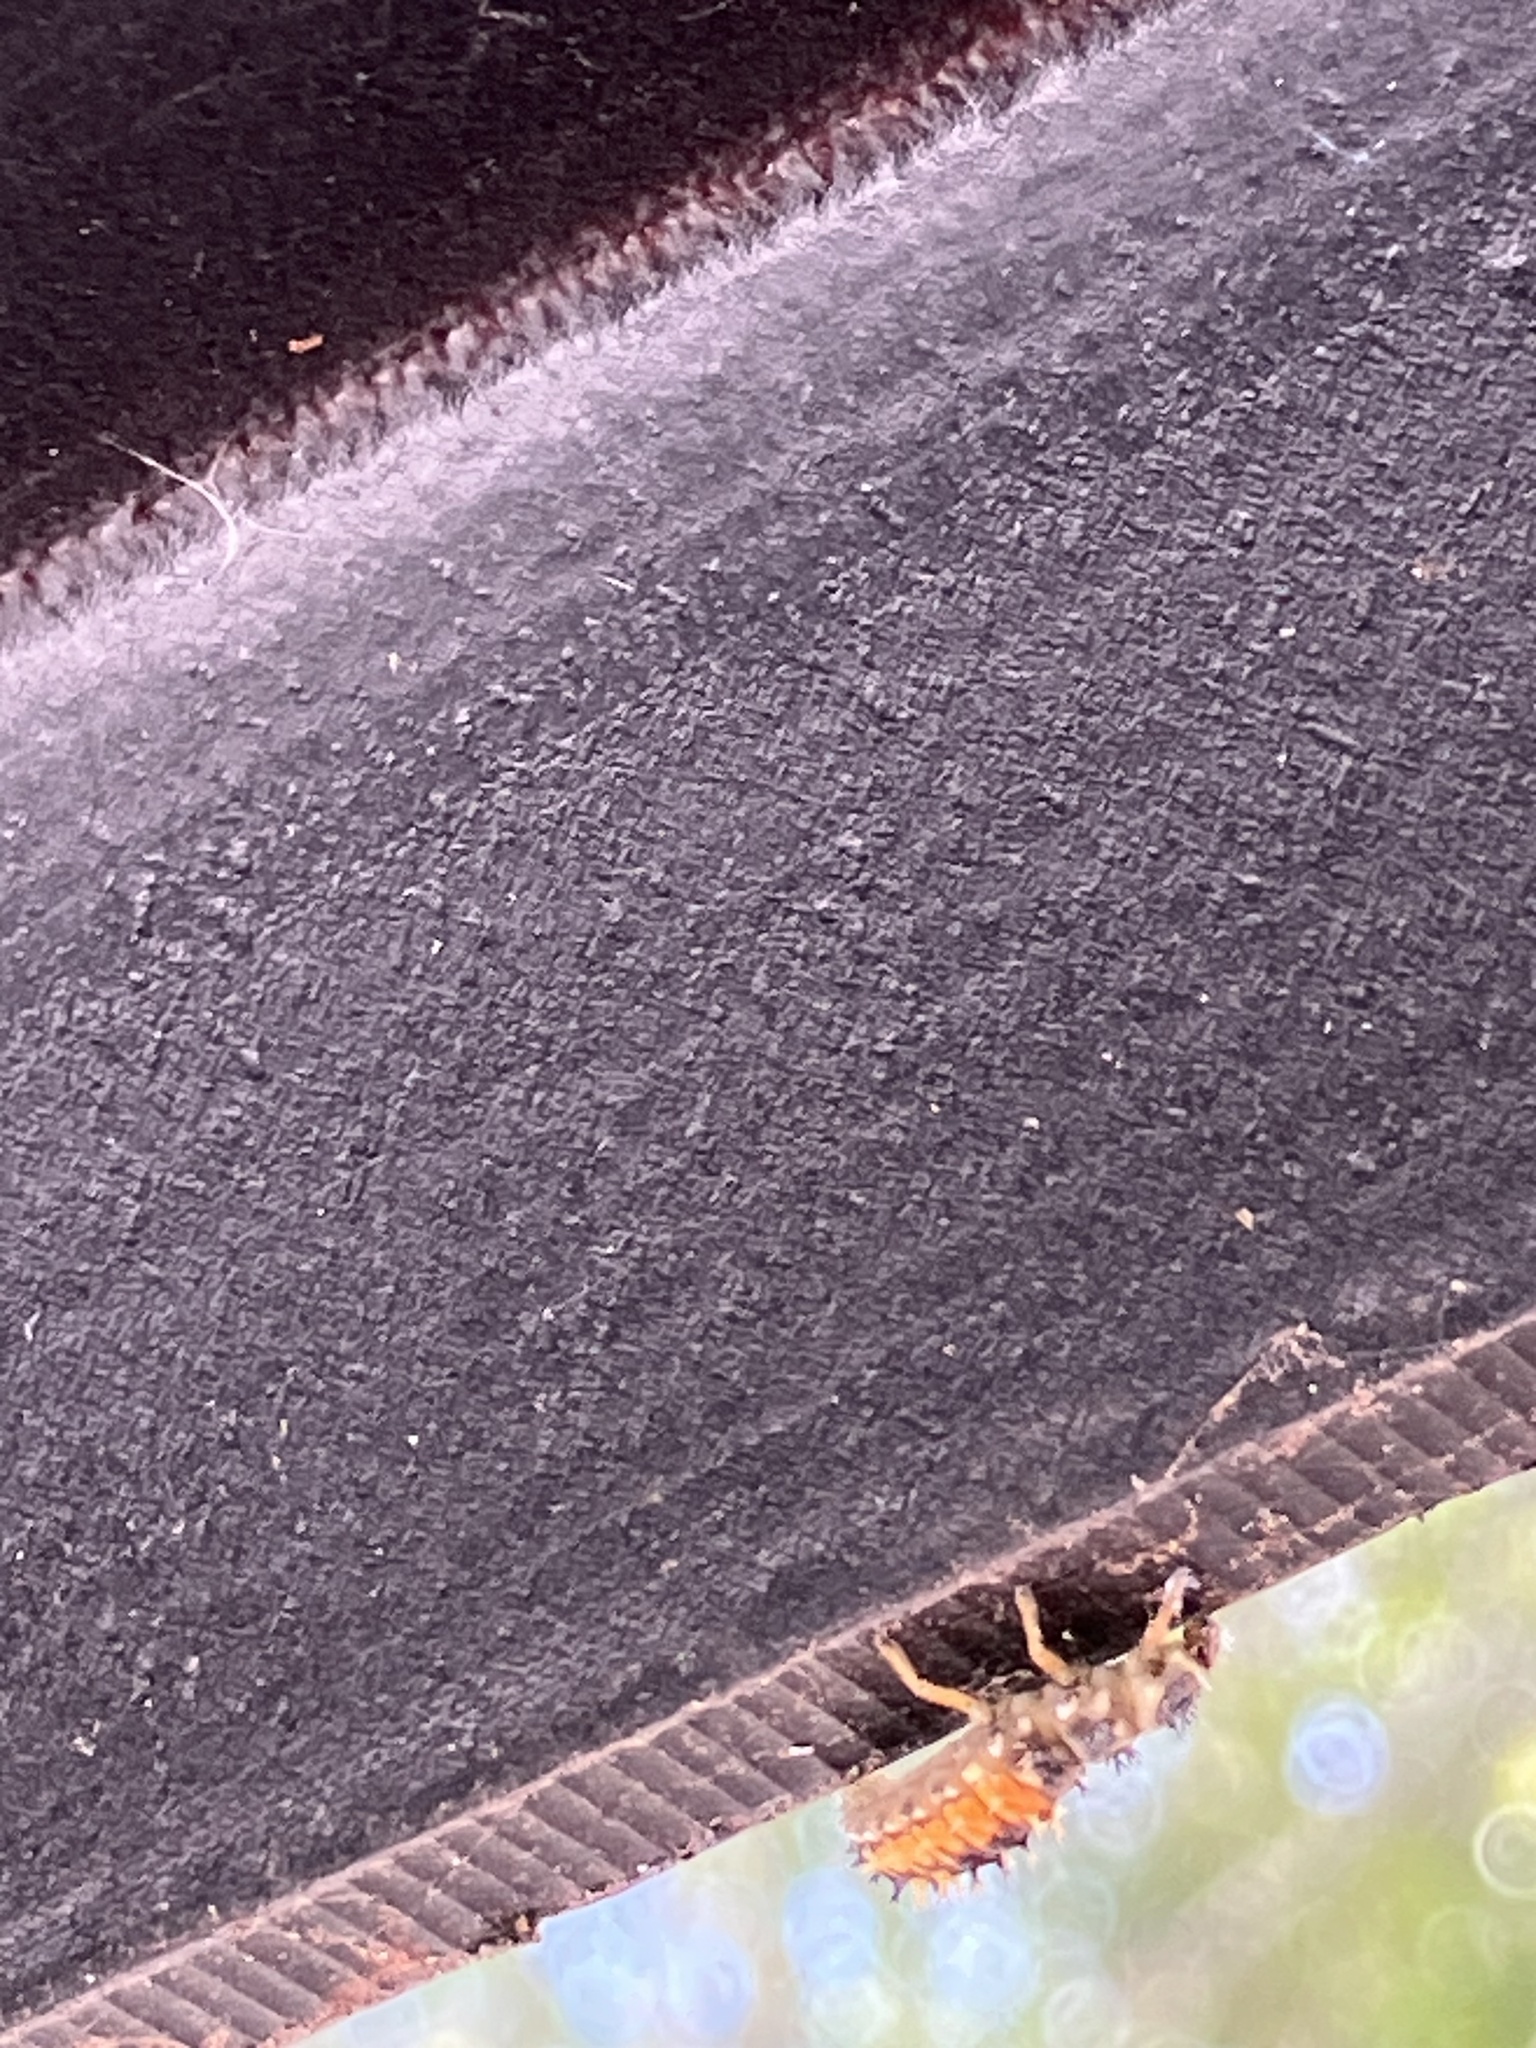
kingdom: Animalia
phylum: Arthropoda
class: Insecta
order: Coleoptera
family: Coccinellidae
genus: Harmonia
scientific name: Harmonia axyridis
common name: Harlequin ladybird
